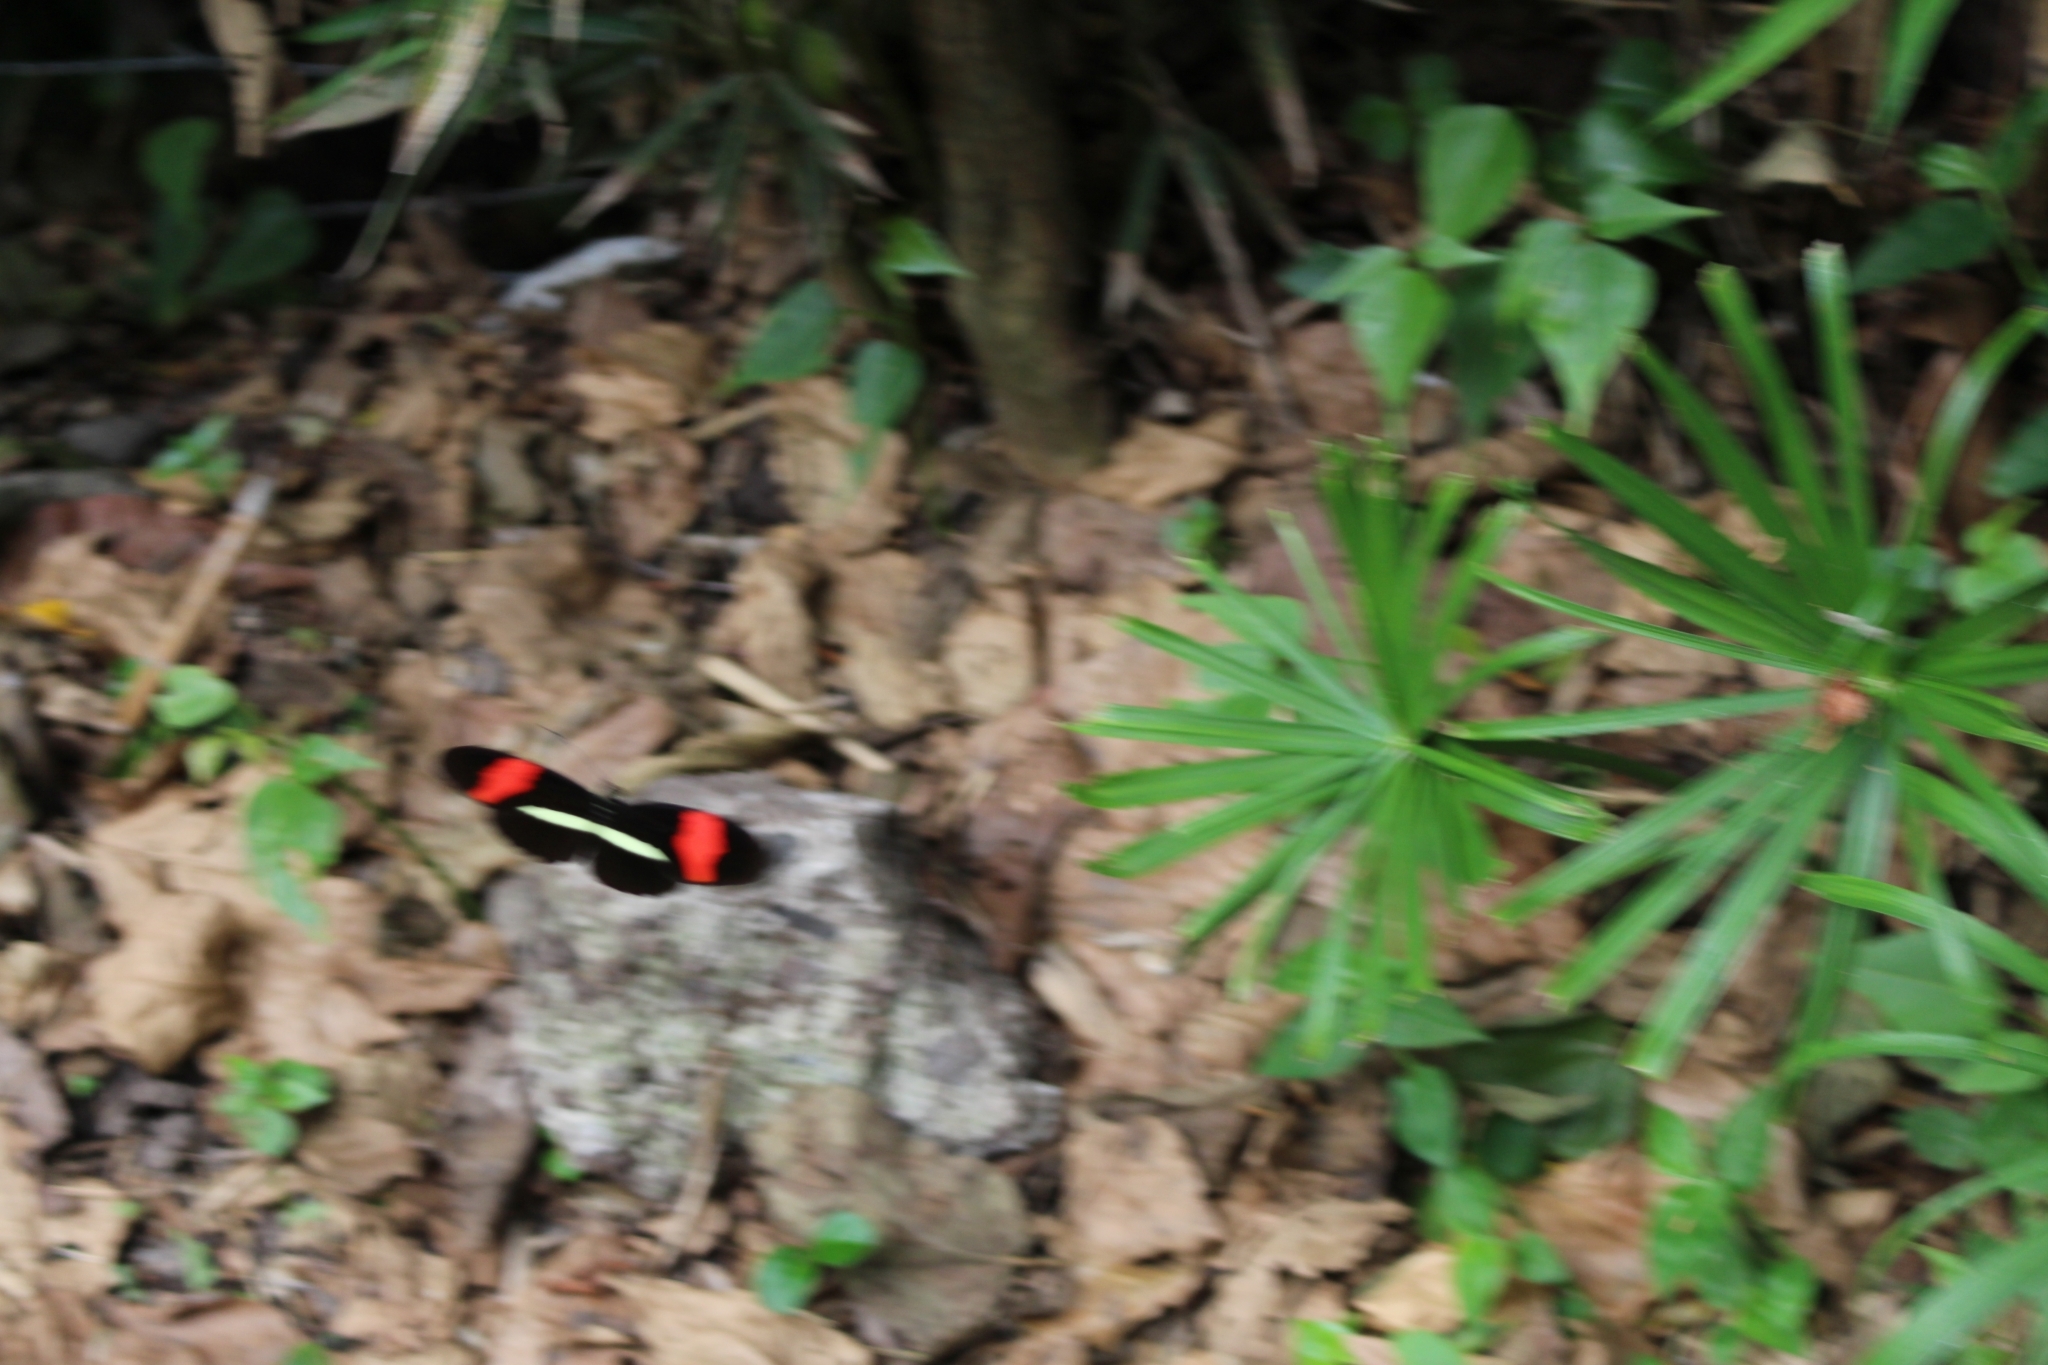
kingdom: Animalia
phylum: Arthropoda
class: Insecta
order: Lepidoptera
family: Nymphalidae
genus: Heliconius
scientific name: Heliconius erato
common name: Common patch longwing
